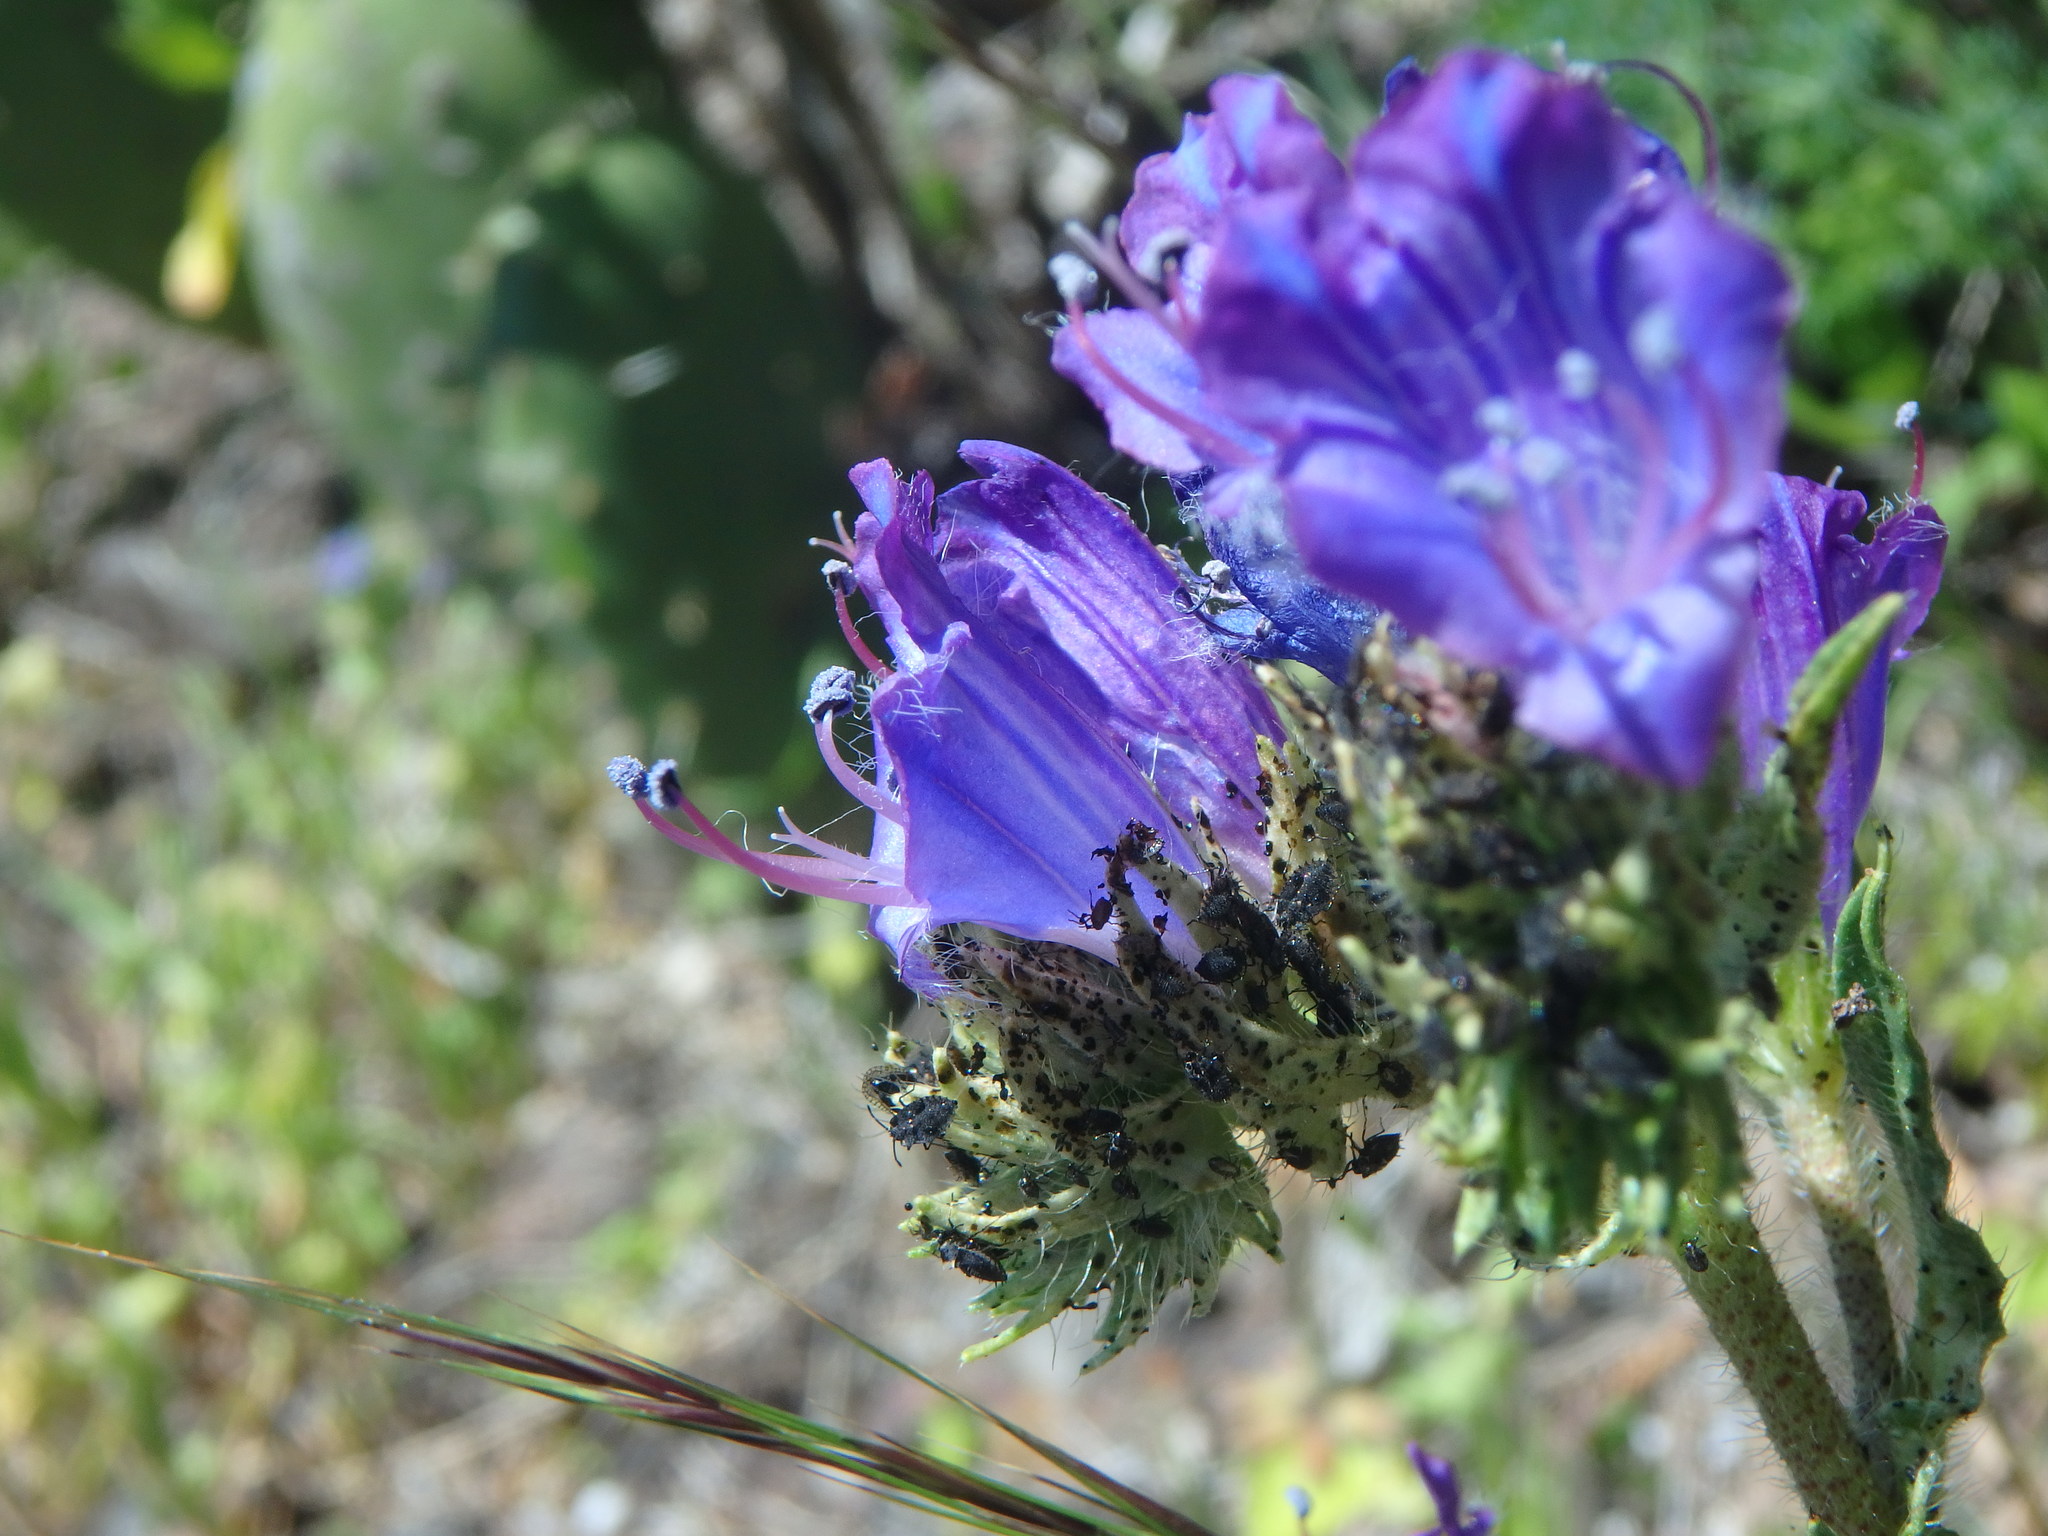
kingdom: Plantae
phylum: Tracheophyta
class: Magnoliopsida
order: Boraginales
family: Boraginaceae
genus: Echium
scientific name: Echium plantagineum
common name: Purple viper's-bugloss
